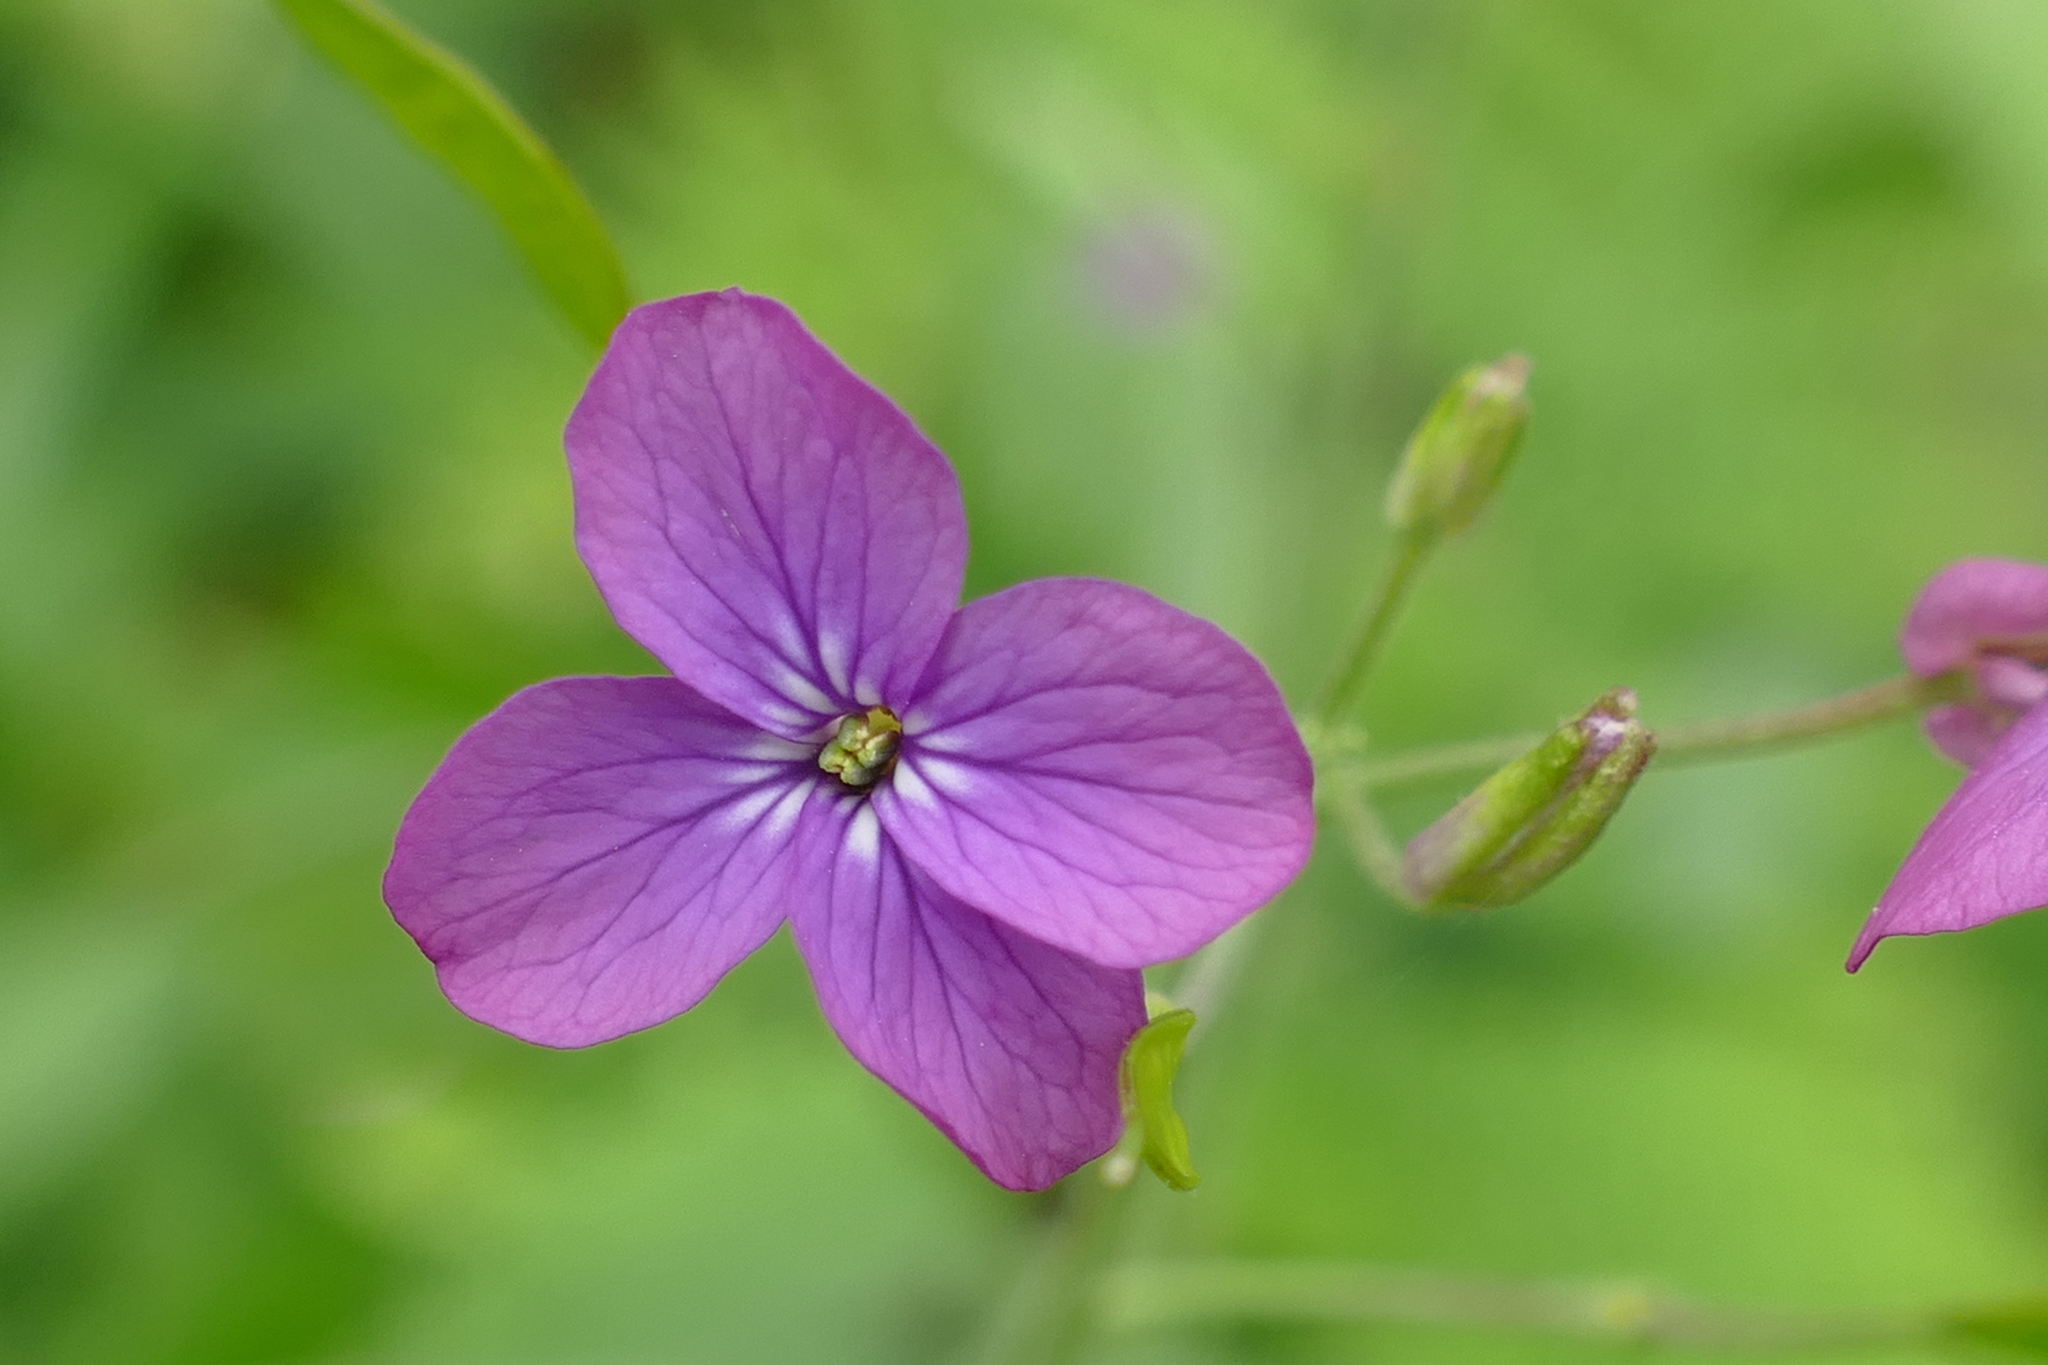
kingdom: Plantae
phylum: Tracheophyta
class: Magnoliopsida
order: Brassicales
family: Brassicaceae
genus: Lunaria
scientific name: Lunaria annua
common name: Honesty
